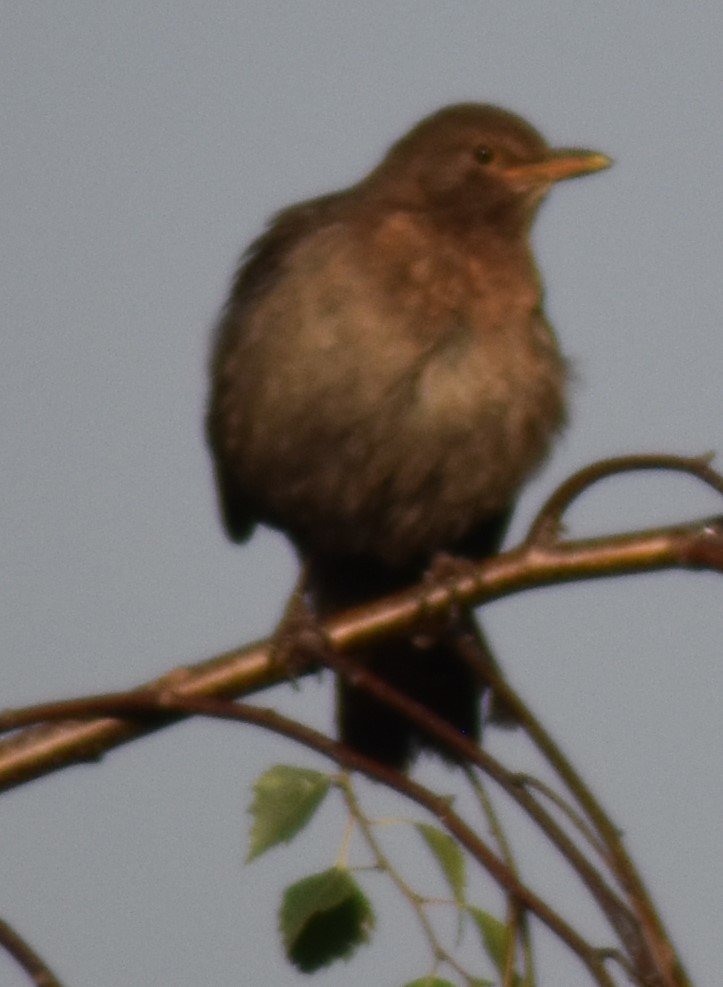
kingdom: Animalia
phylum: Chordata
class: Aves
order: Passeriformes
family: Turdidae
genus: Turdus
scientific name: Turdus merula
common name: Common blackbird
